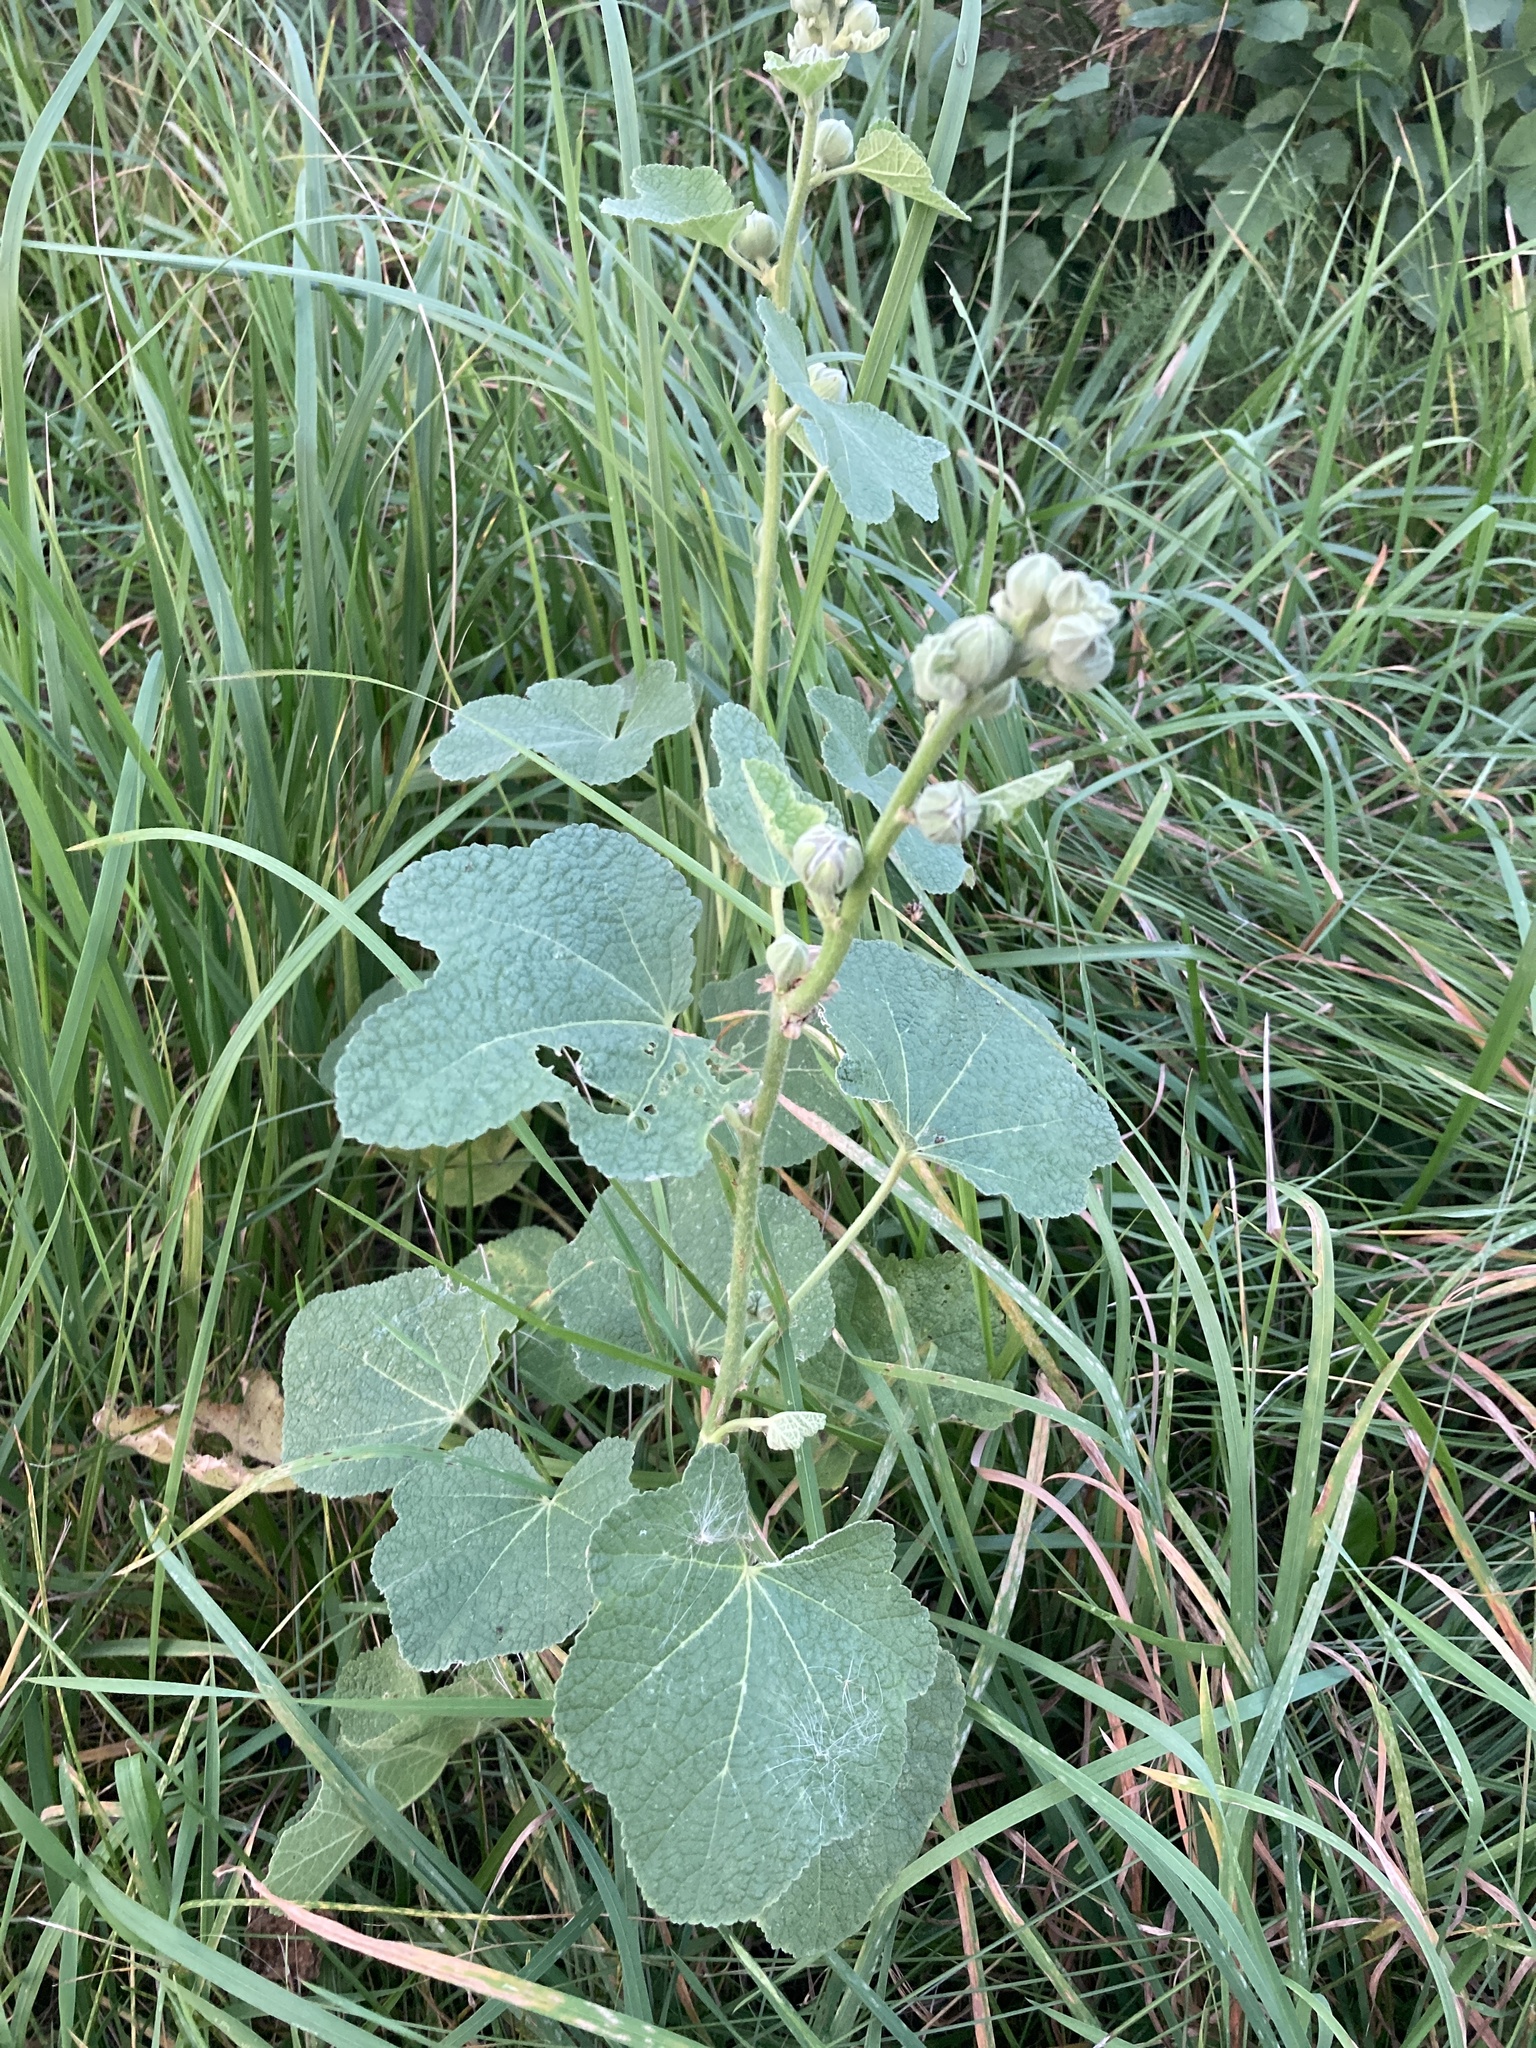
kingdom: Plantae
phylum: Tracheophyta
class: Magnoliopsida
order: Malvales
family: Malvaceae
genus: Alcea
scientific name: Alcea rosea
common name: Hollyhock
